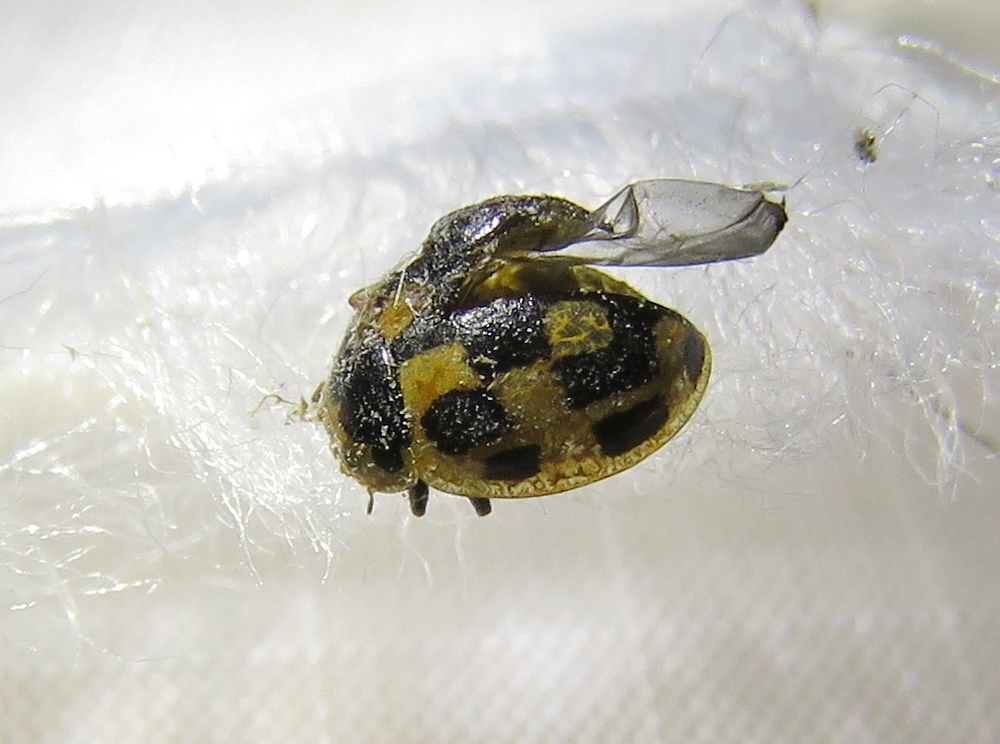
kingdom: Animalia
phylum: Arthropoda
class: Insecta
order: Coleoptera
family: Coccinellidae
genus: Propylaea
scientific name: Propylaea quatuordecimpunctata
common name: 14-spotted ladybird beetle
